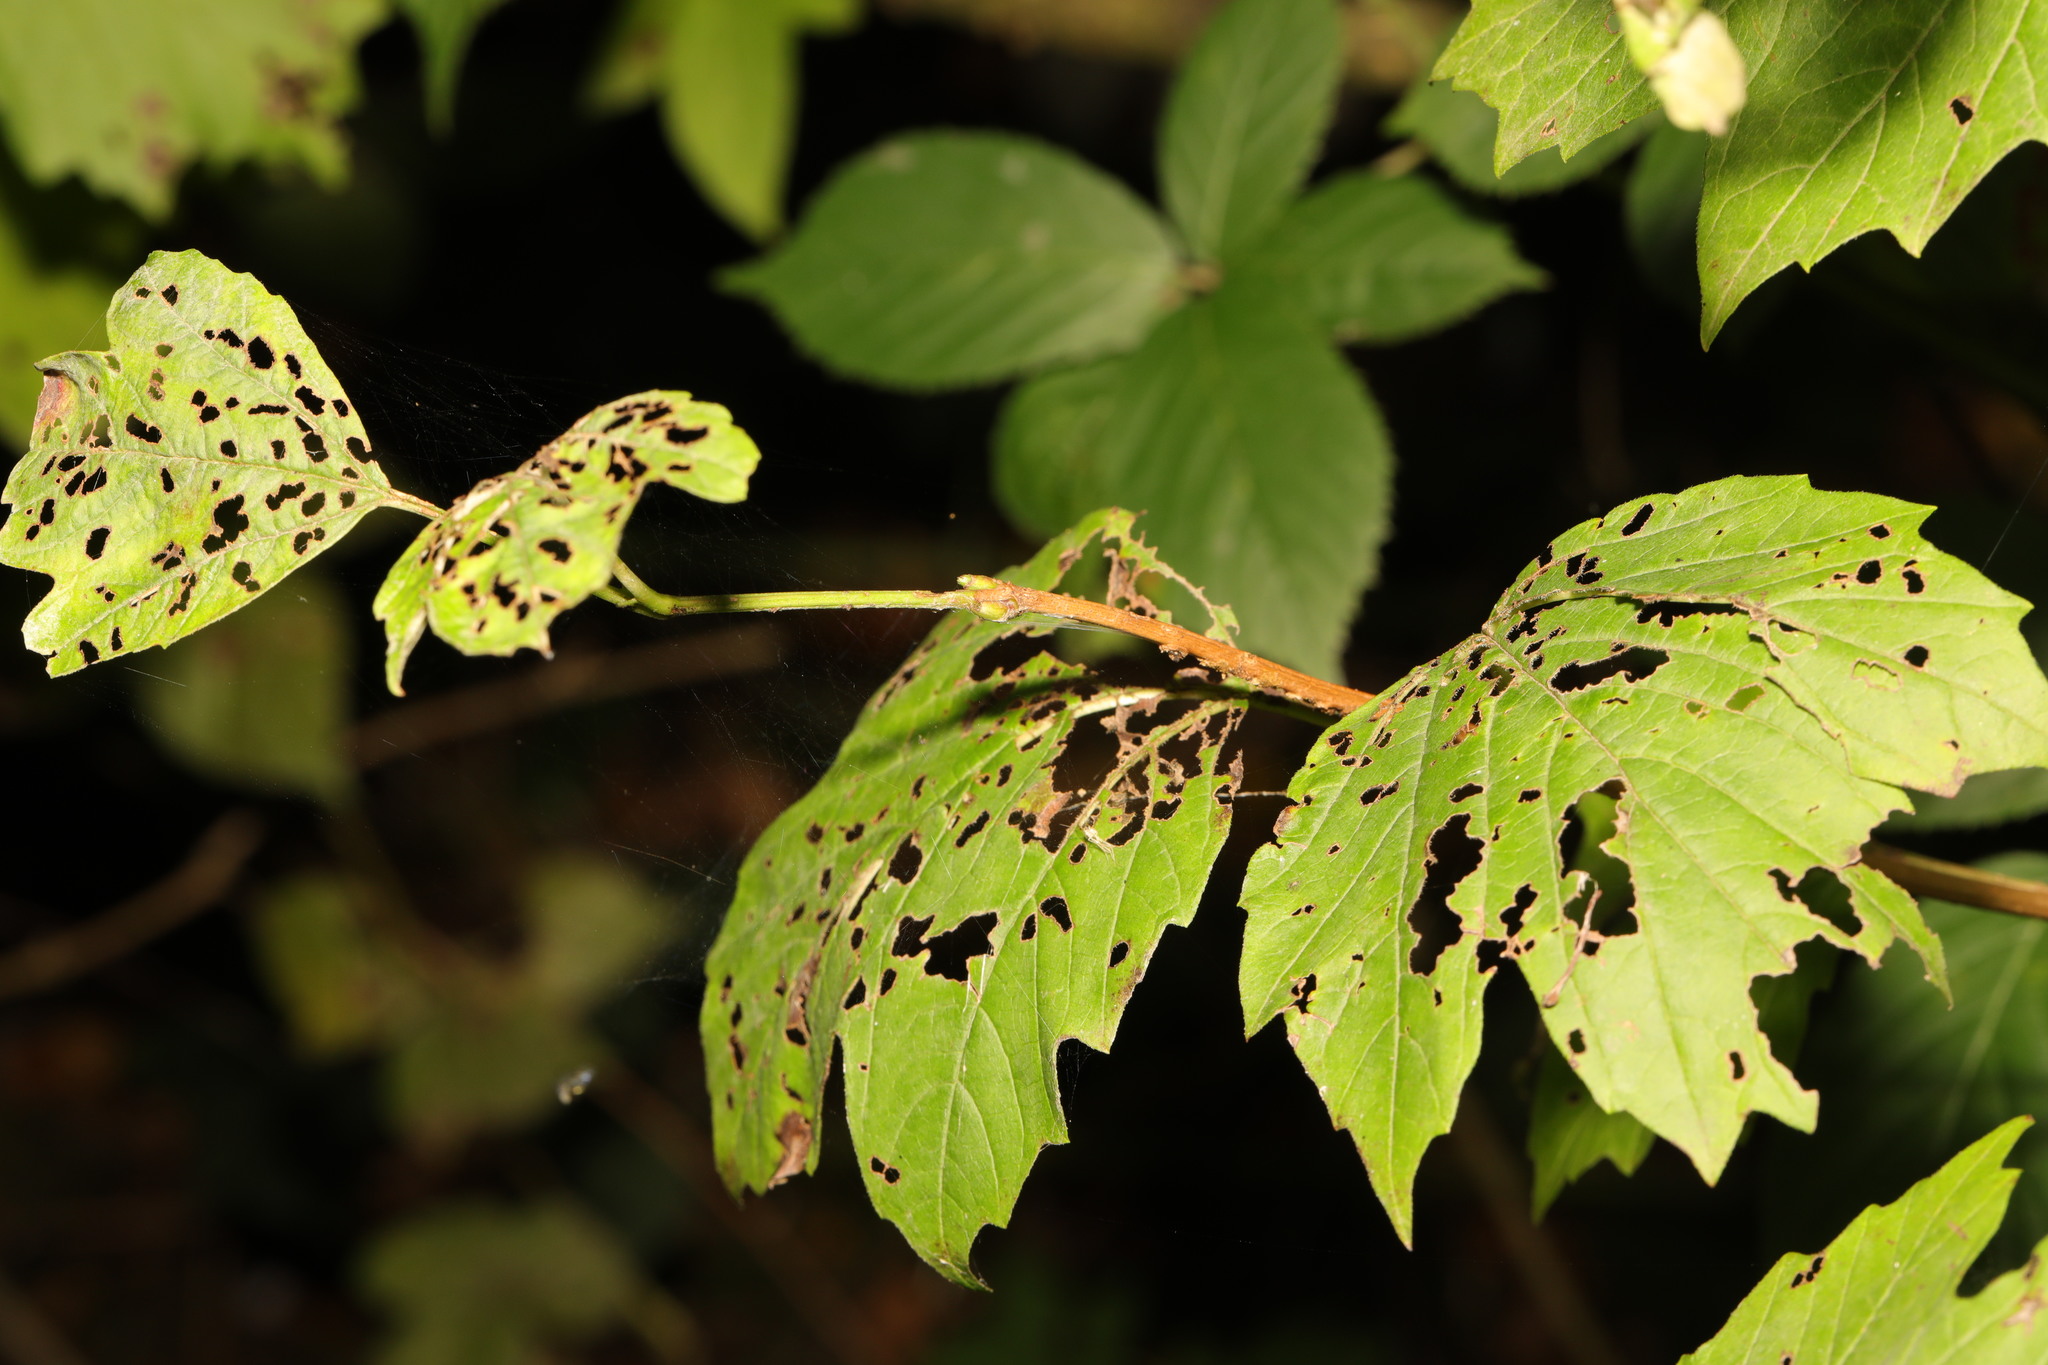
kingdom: Plantae
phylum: Tracheophyta
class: Magnoliopsida
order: Dipsacales
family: Viburnaceae
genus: Viburnum
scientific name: Viburnum opulus
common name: Guelder-rose
